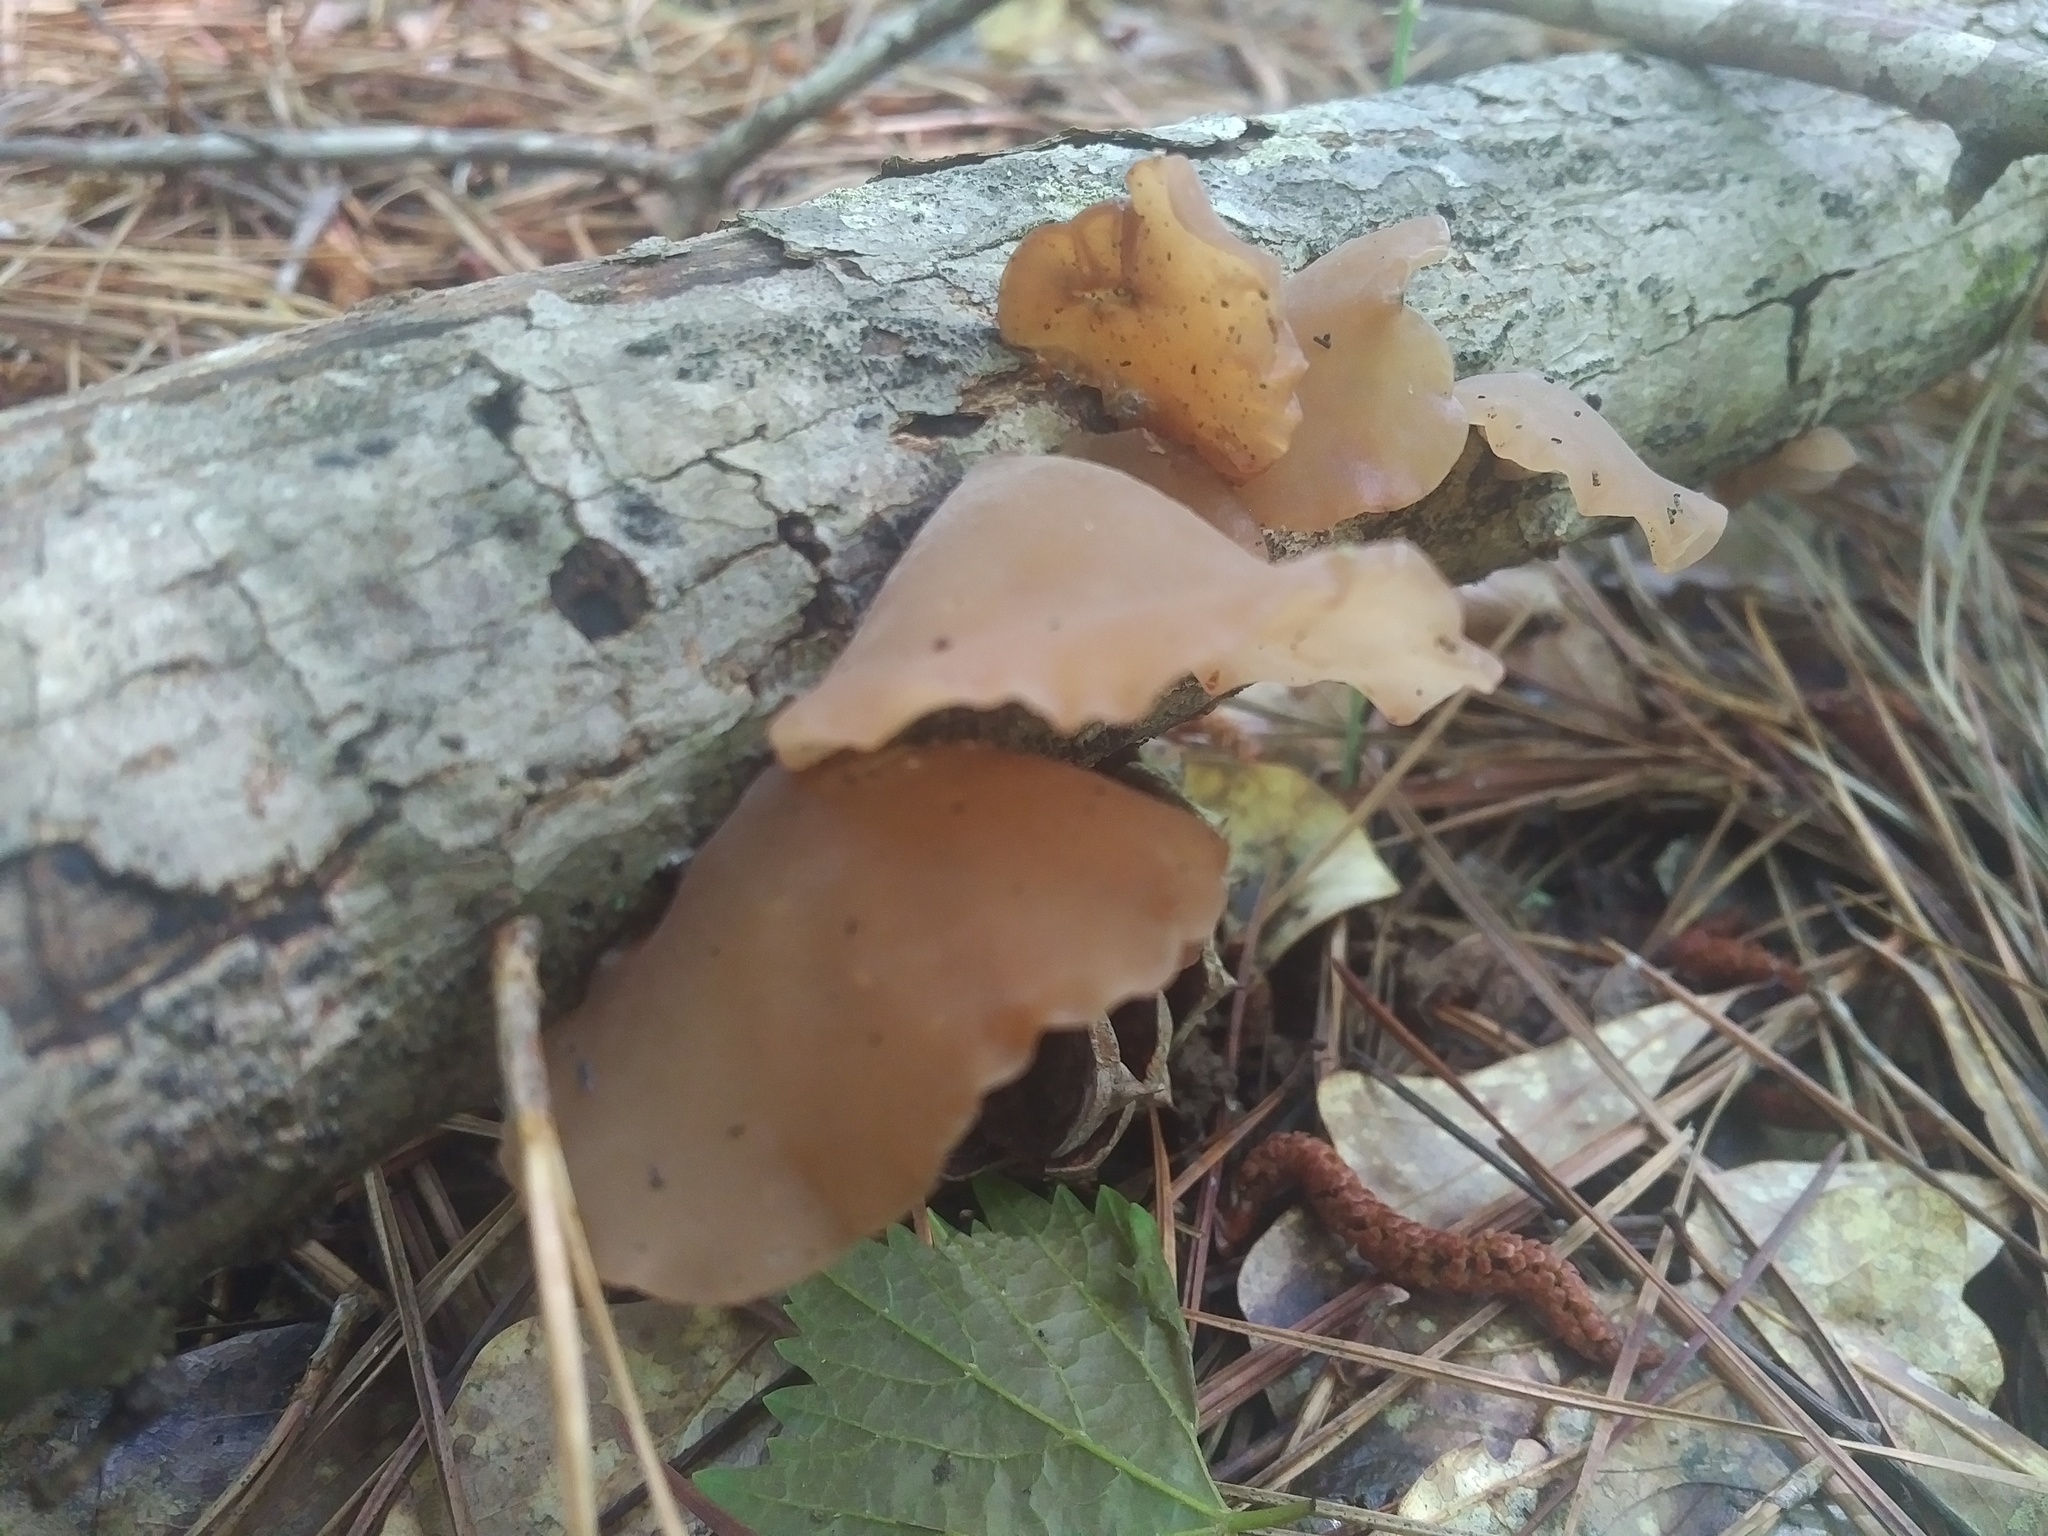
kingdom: Fungi
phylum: Basidiomycota
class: Agaricomycetes
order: Auriculariales
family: Auriculariaceae
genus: Auricularia
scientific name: Auricularia angiospermarum
